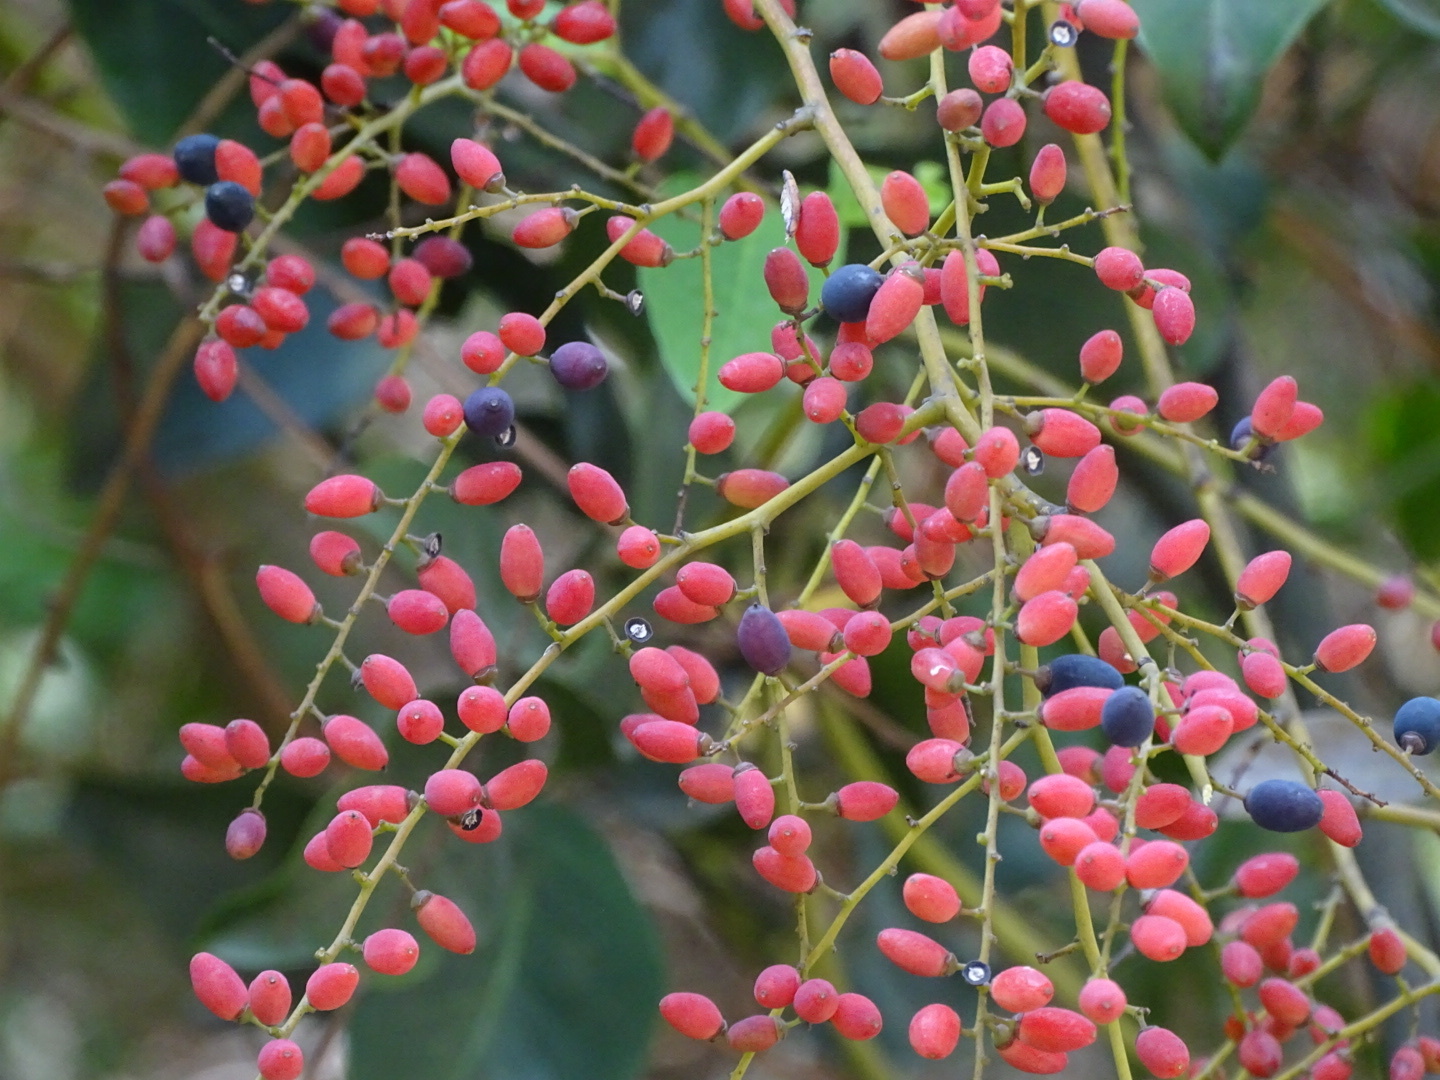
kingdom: Plantae
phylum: Tracheophyta
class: Magnoliopsida
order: Rosales
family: Rhamnaceae
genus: Berchemia
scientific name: Berchemia floribunda
